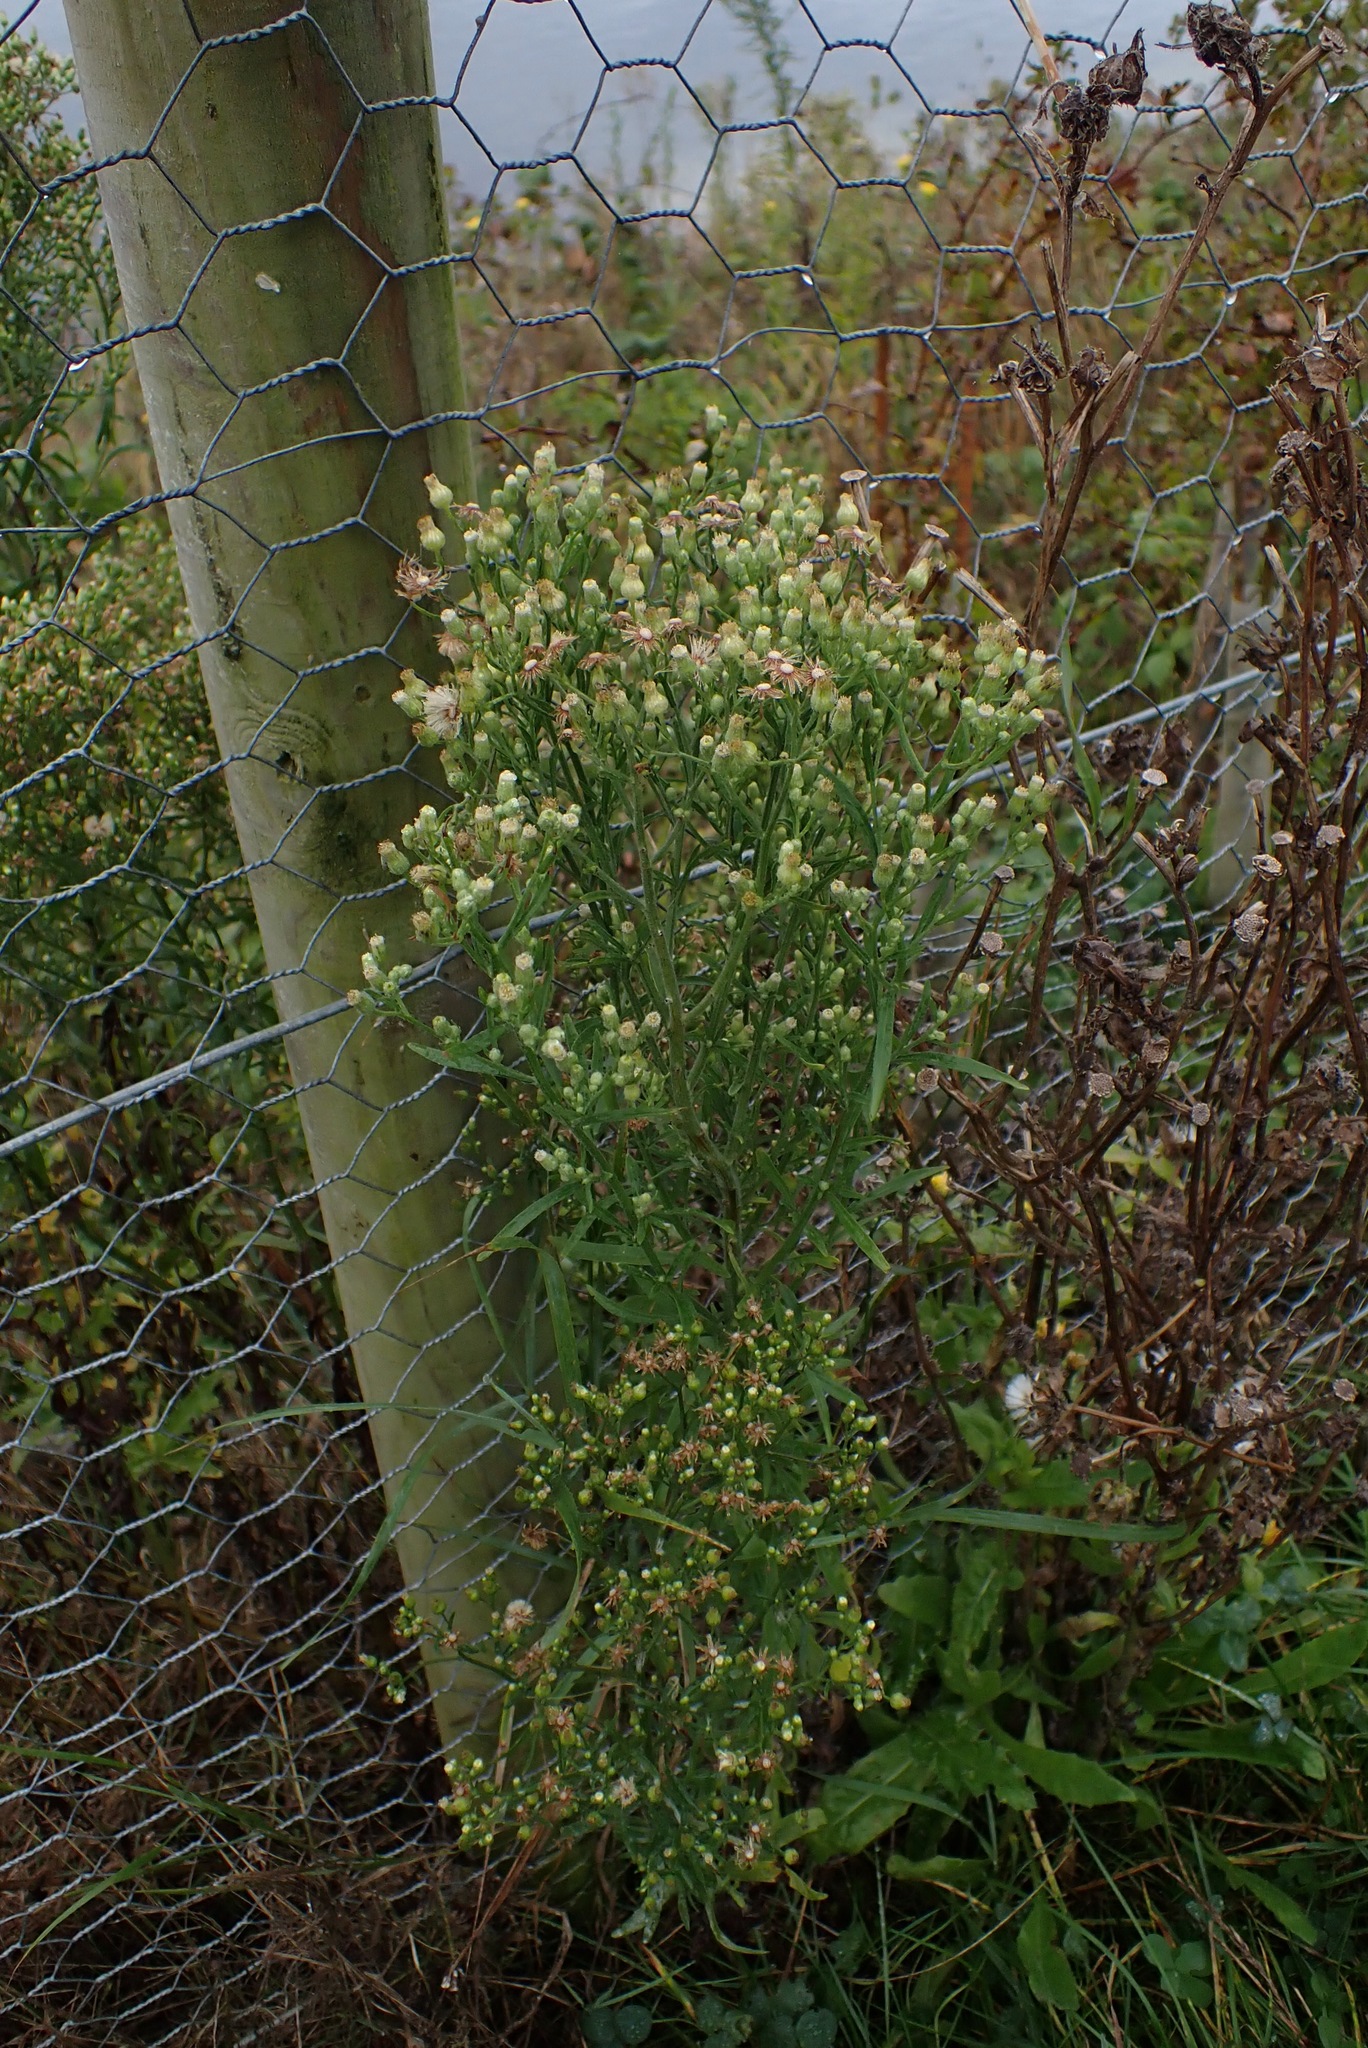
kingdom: Plantae
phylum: Tracheophyta
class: Magnoliopsida
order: Asterales
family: Asteraceae
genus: Erigeron
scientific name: Erigeron sumatrensis
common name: Daisy
